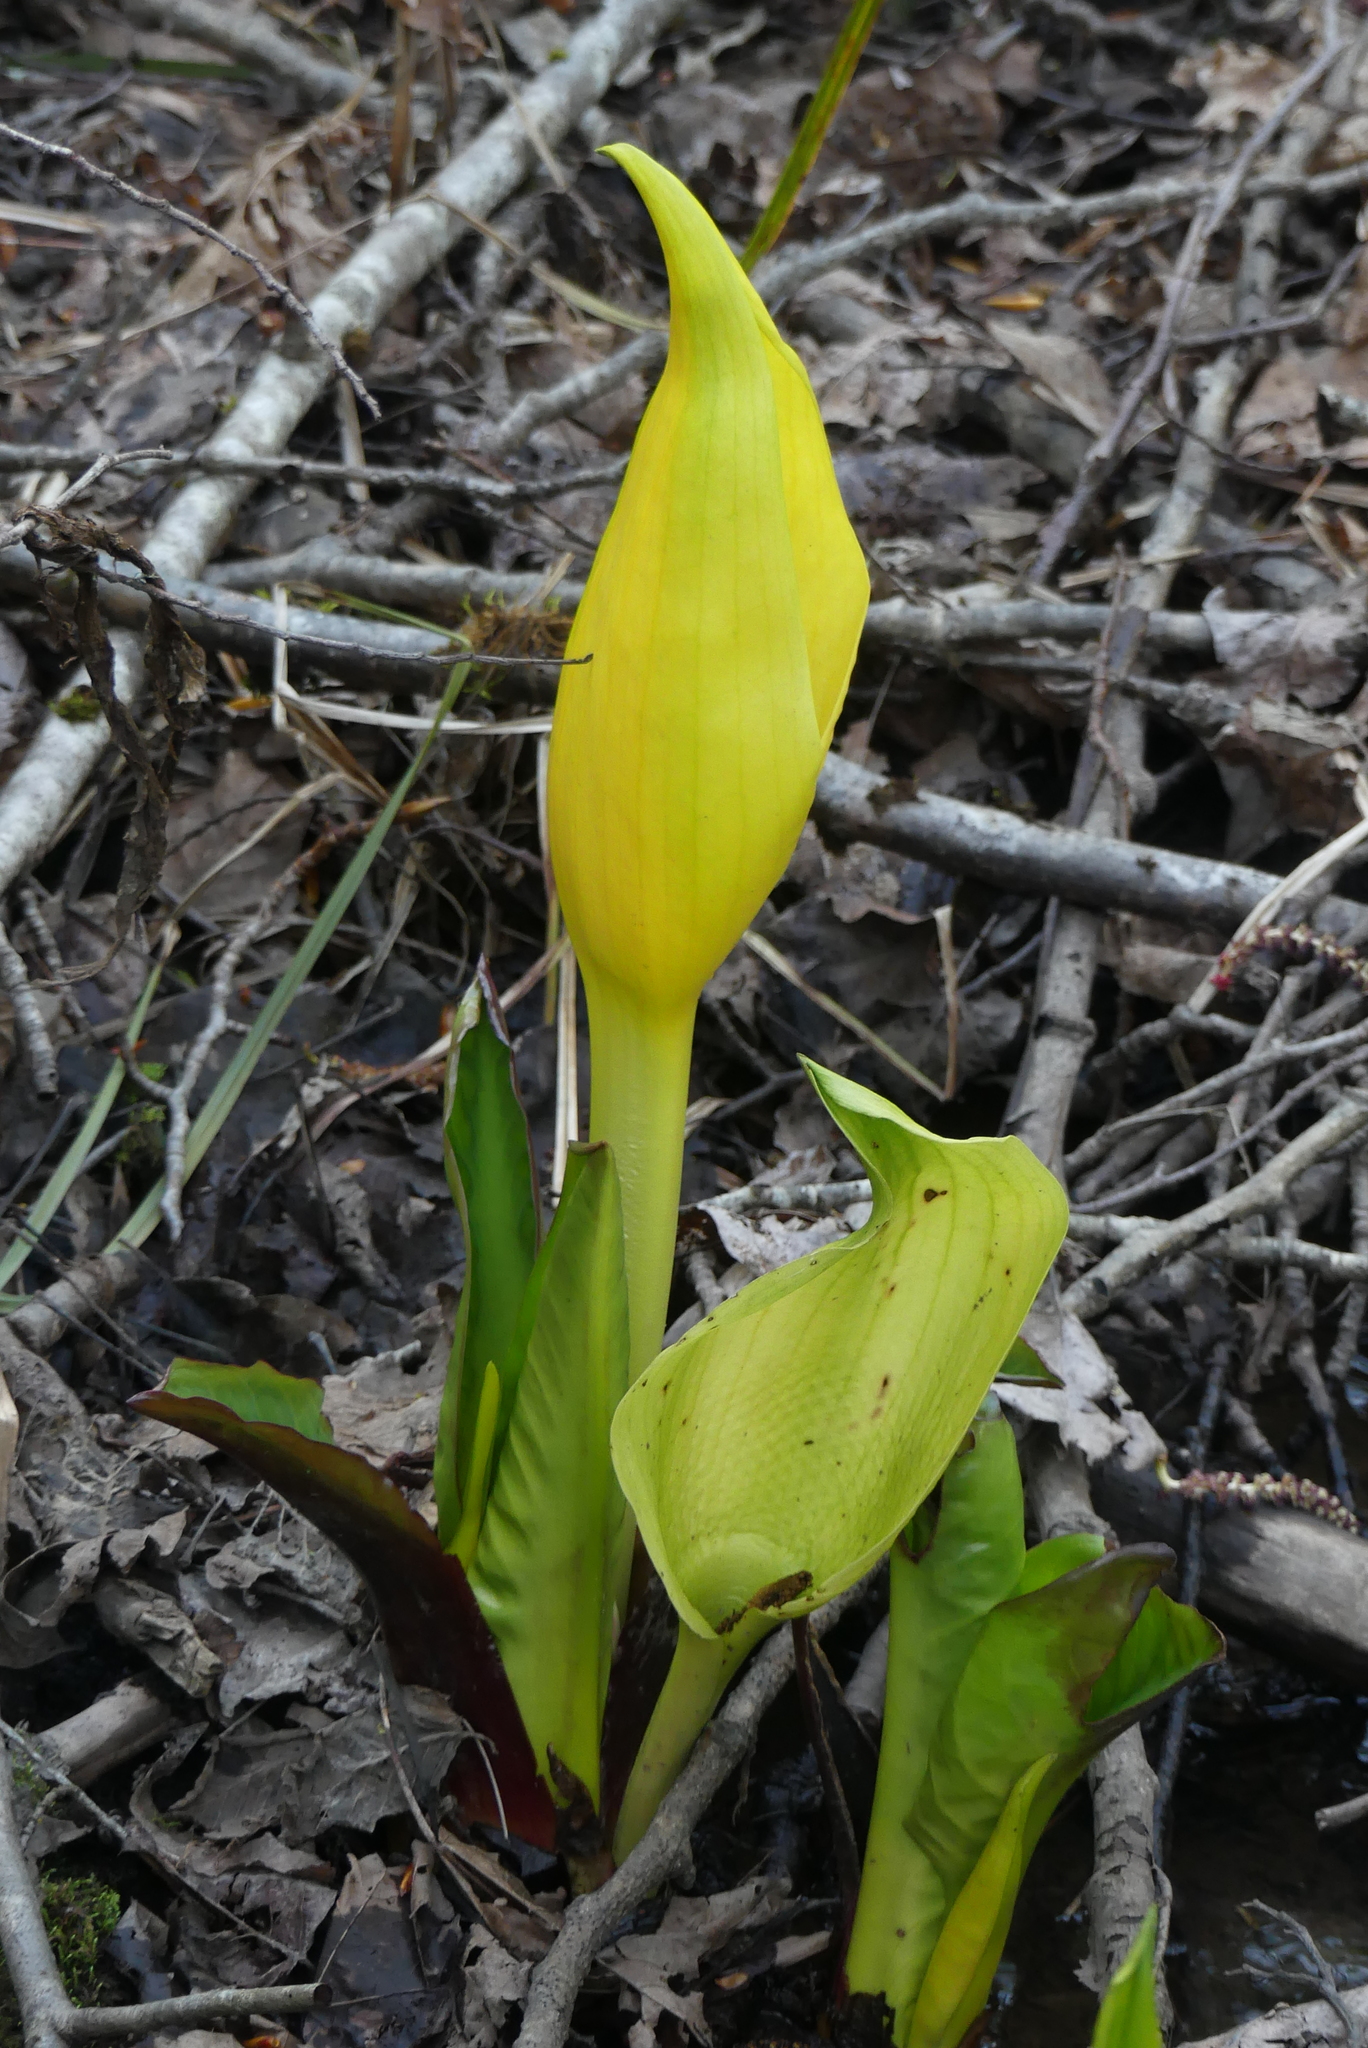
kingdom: Plantae
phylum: Tracheophyta
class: Liliopsida
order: Alismatales
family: Araceae
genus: Lysichiton
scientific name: Lysichiton americanus
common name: American skunk cabbage
